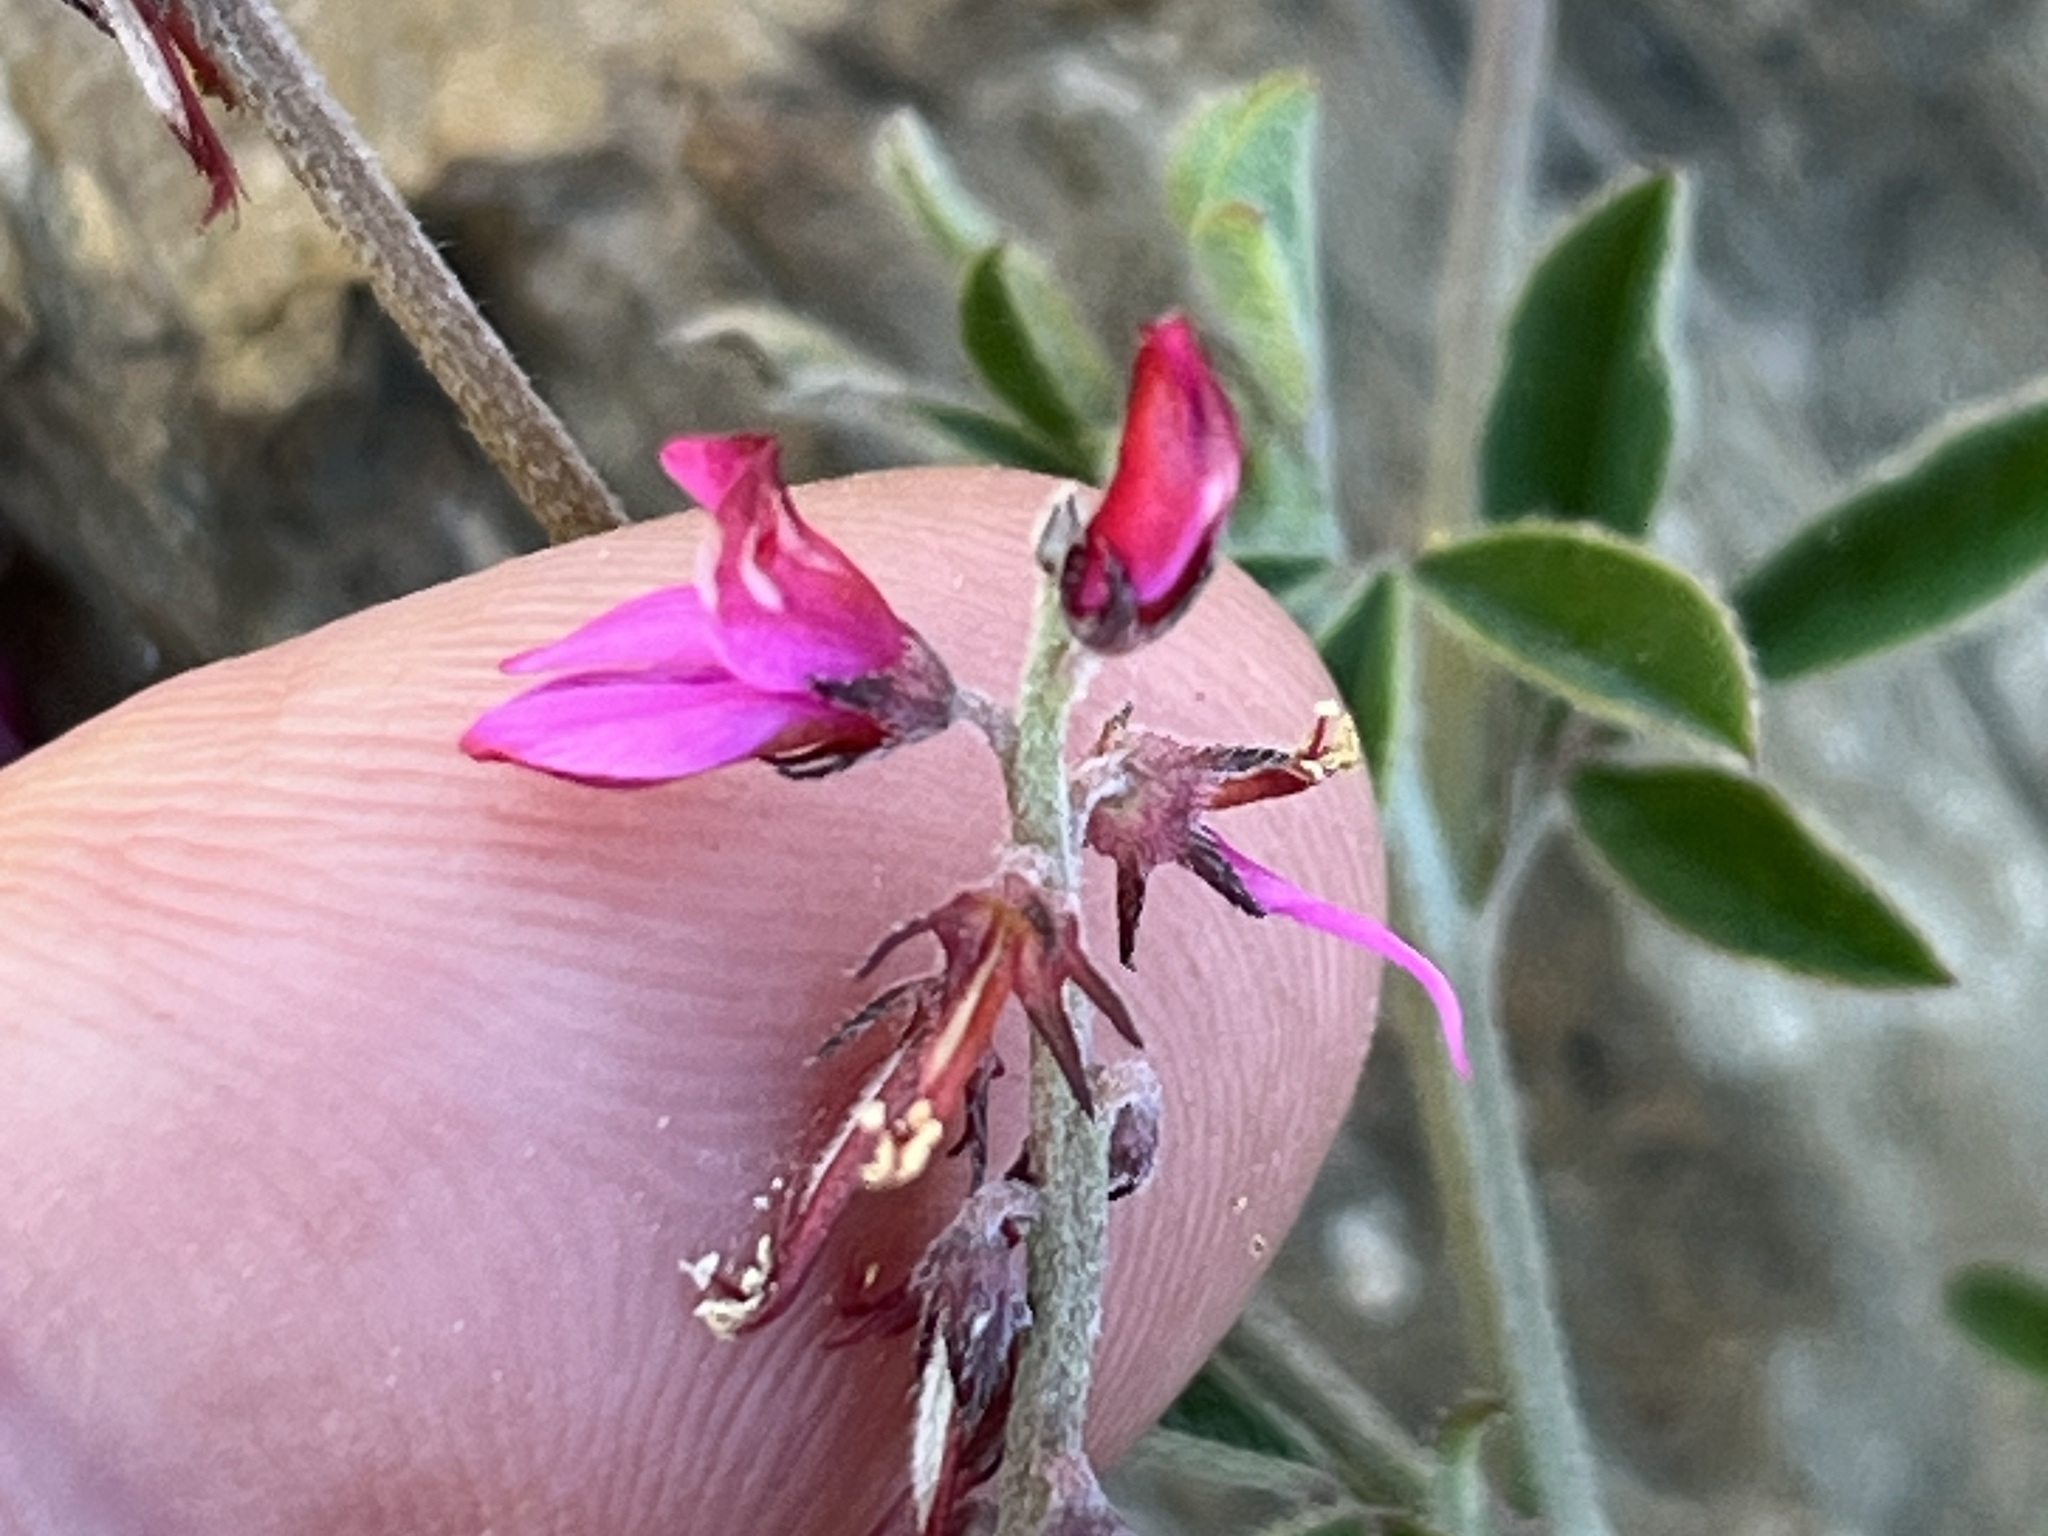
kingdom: Plantae
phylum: Tracheophyta
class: Magnoliopsida
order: Fabales
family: Fabaceae
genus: Indigofera
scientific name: Indigofera incana
